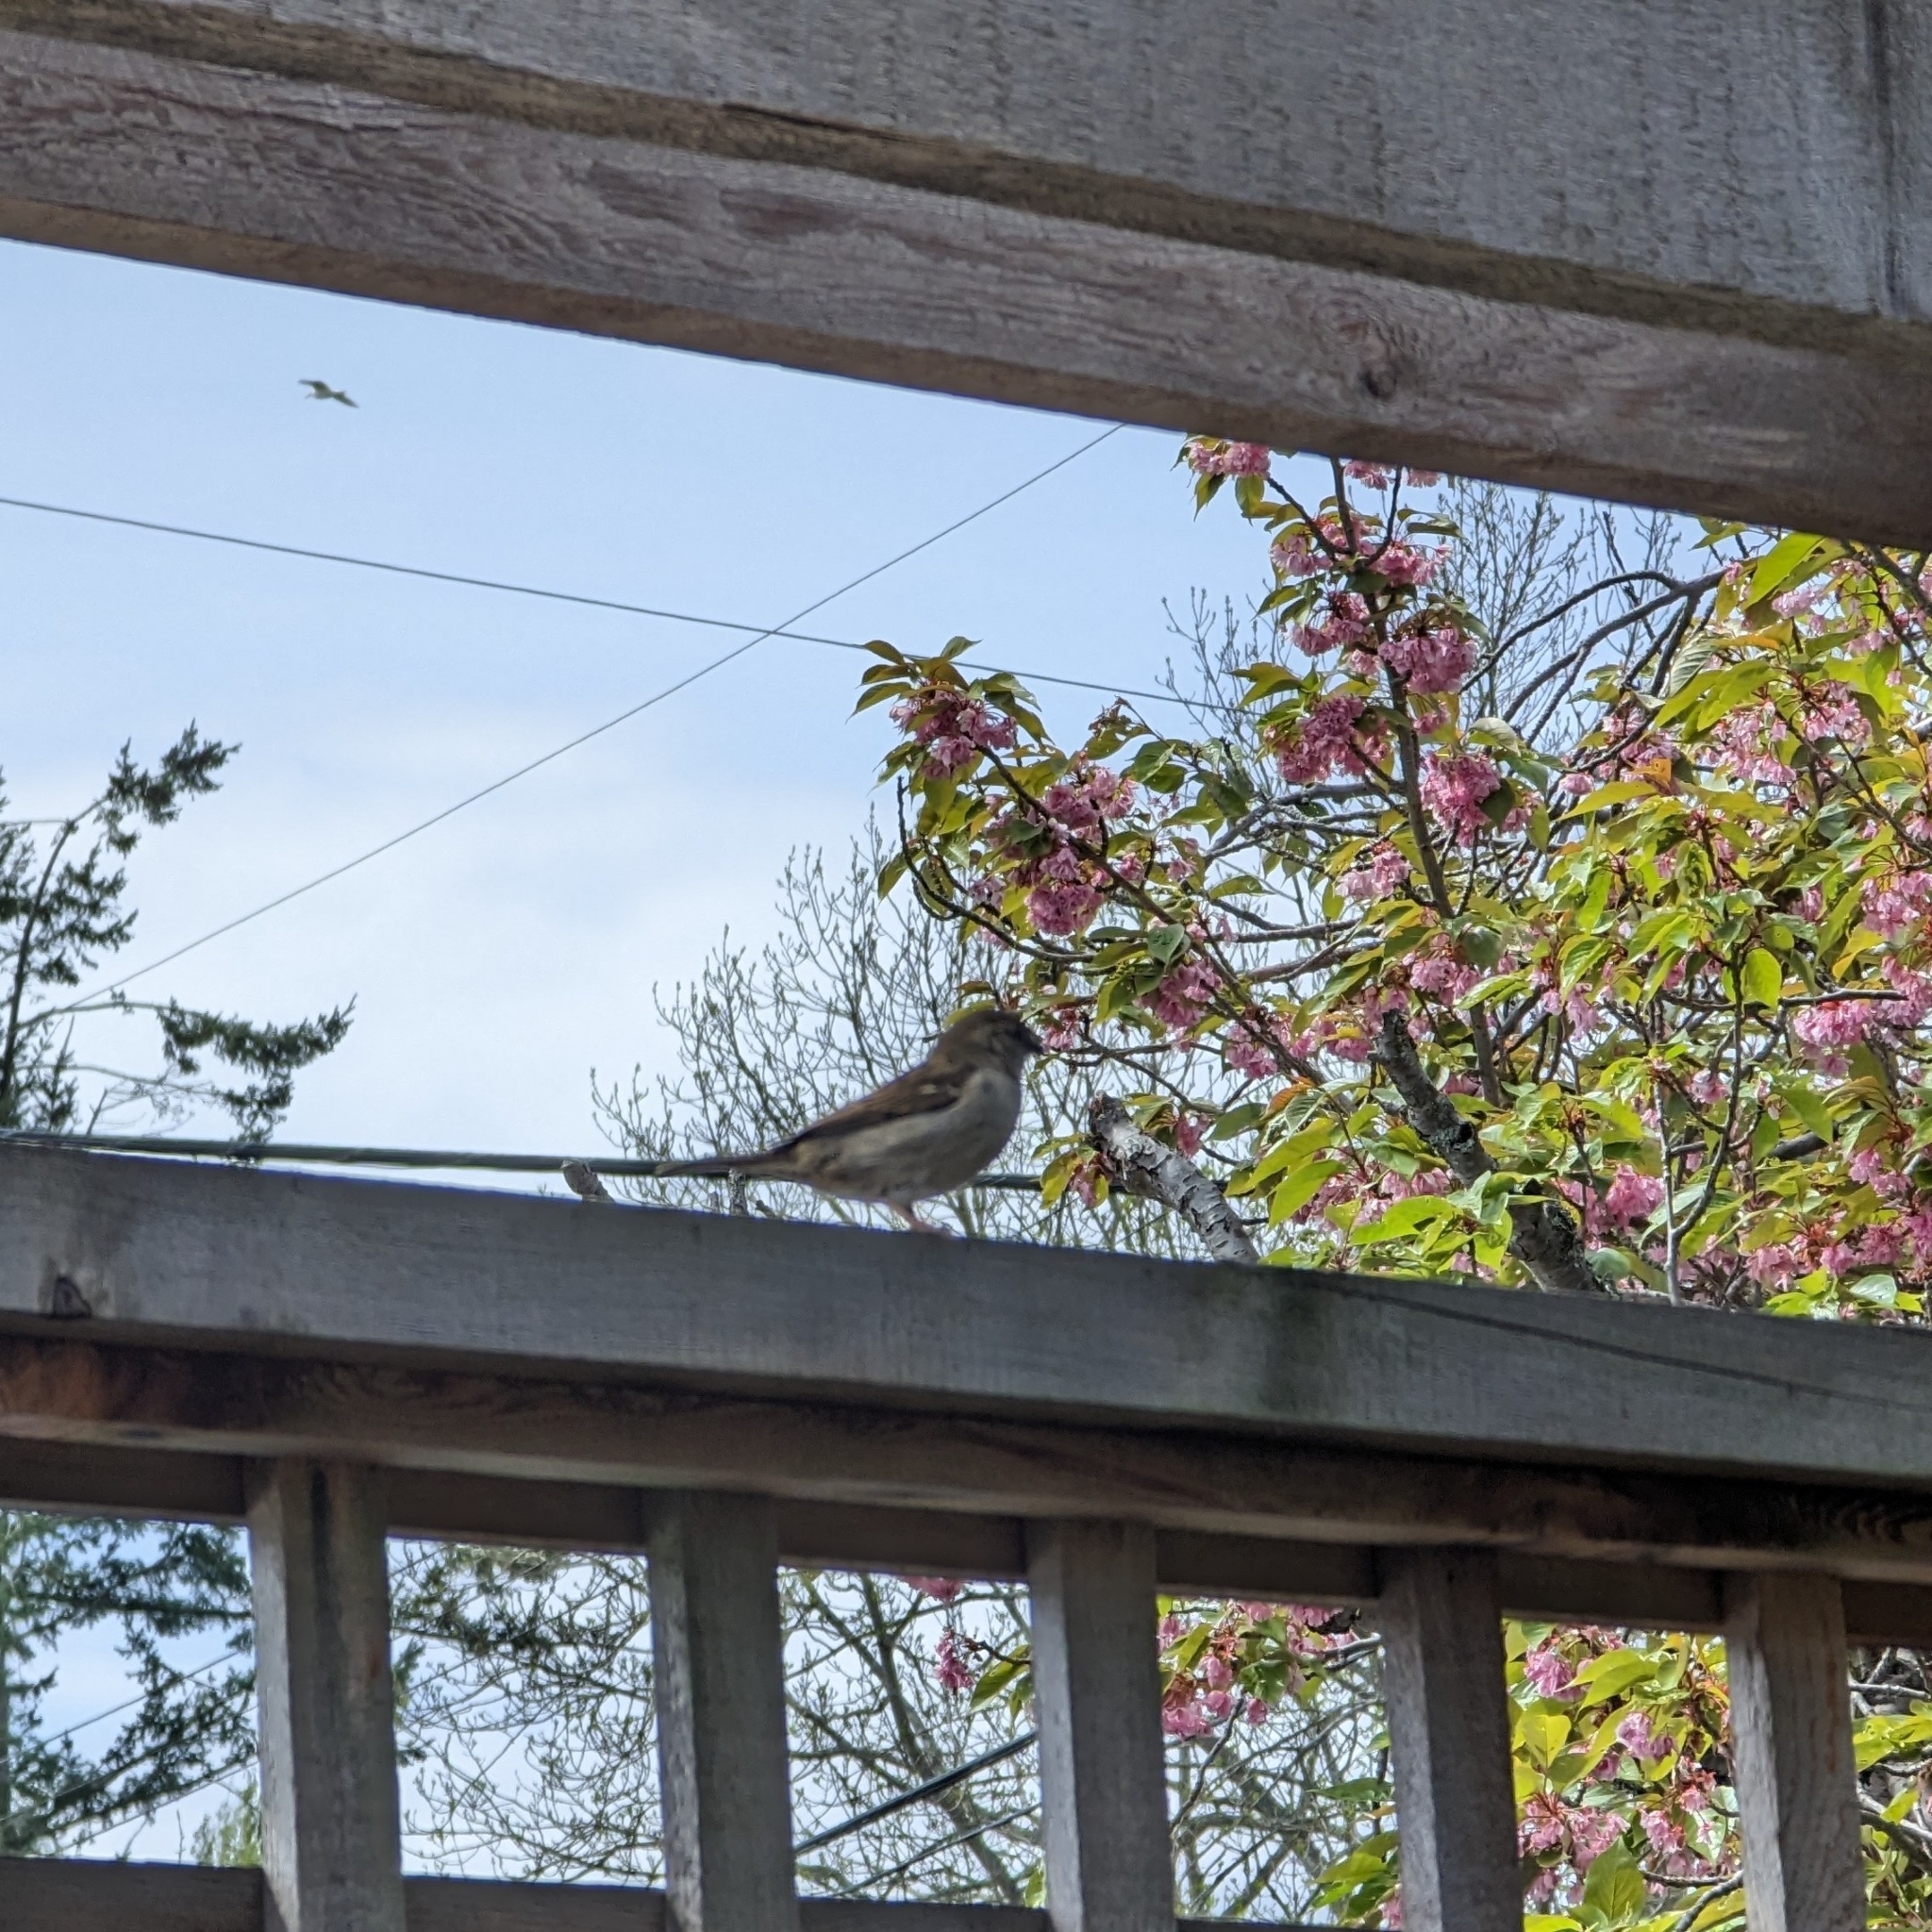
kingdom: Animalia
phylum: Chordata
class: Aves
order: Passeriformes
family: Passeridae
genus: Passer
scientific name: Passer domesticus
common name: House sparrow
